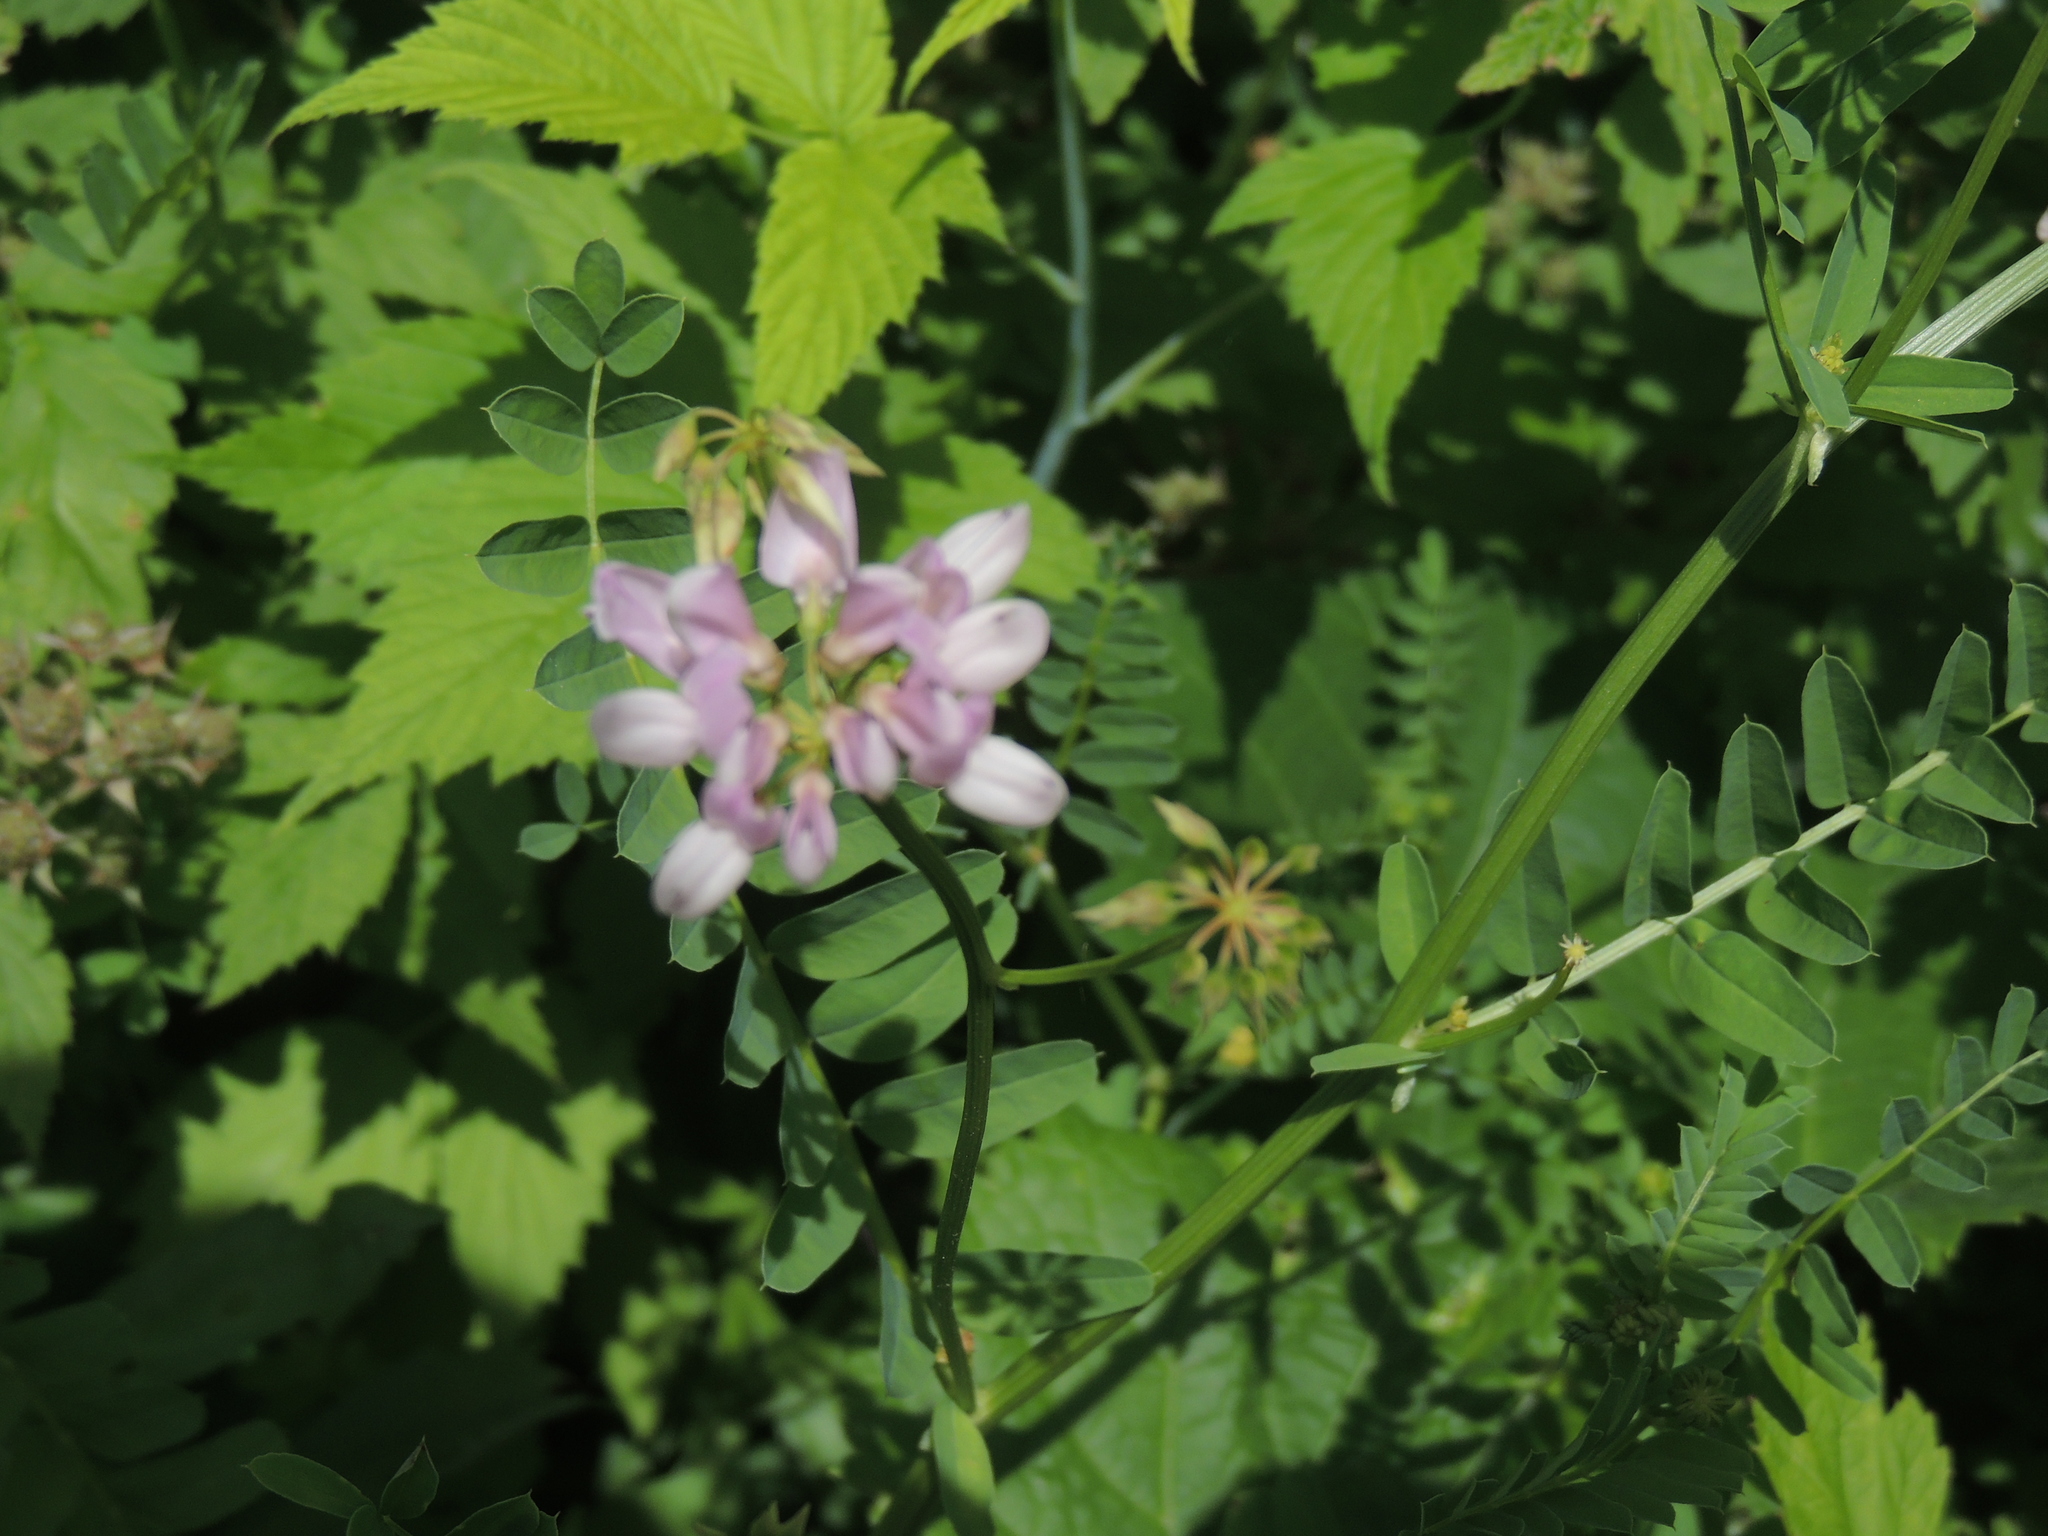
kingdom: Plantae
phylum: Tracheophyta
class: Magnoliopsida
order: Fabales
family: Fabaceae
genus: Coronilla
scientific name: Coronilla varia
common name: Crownvetch
